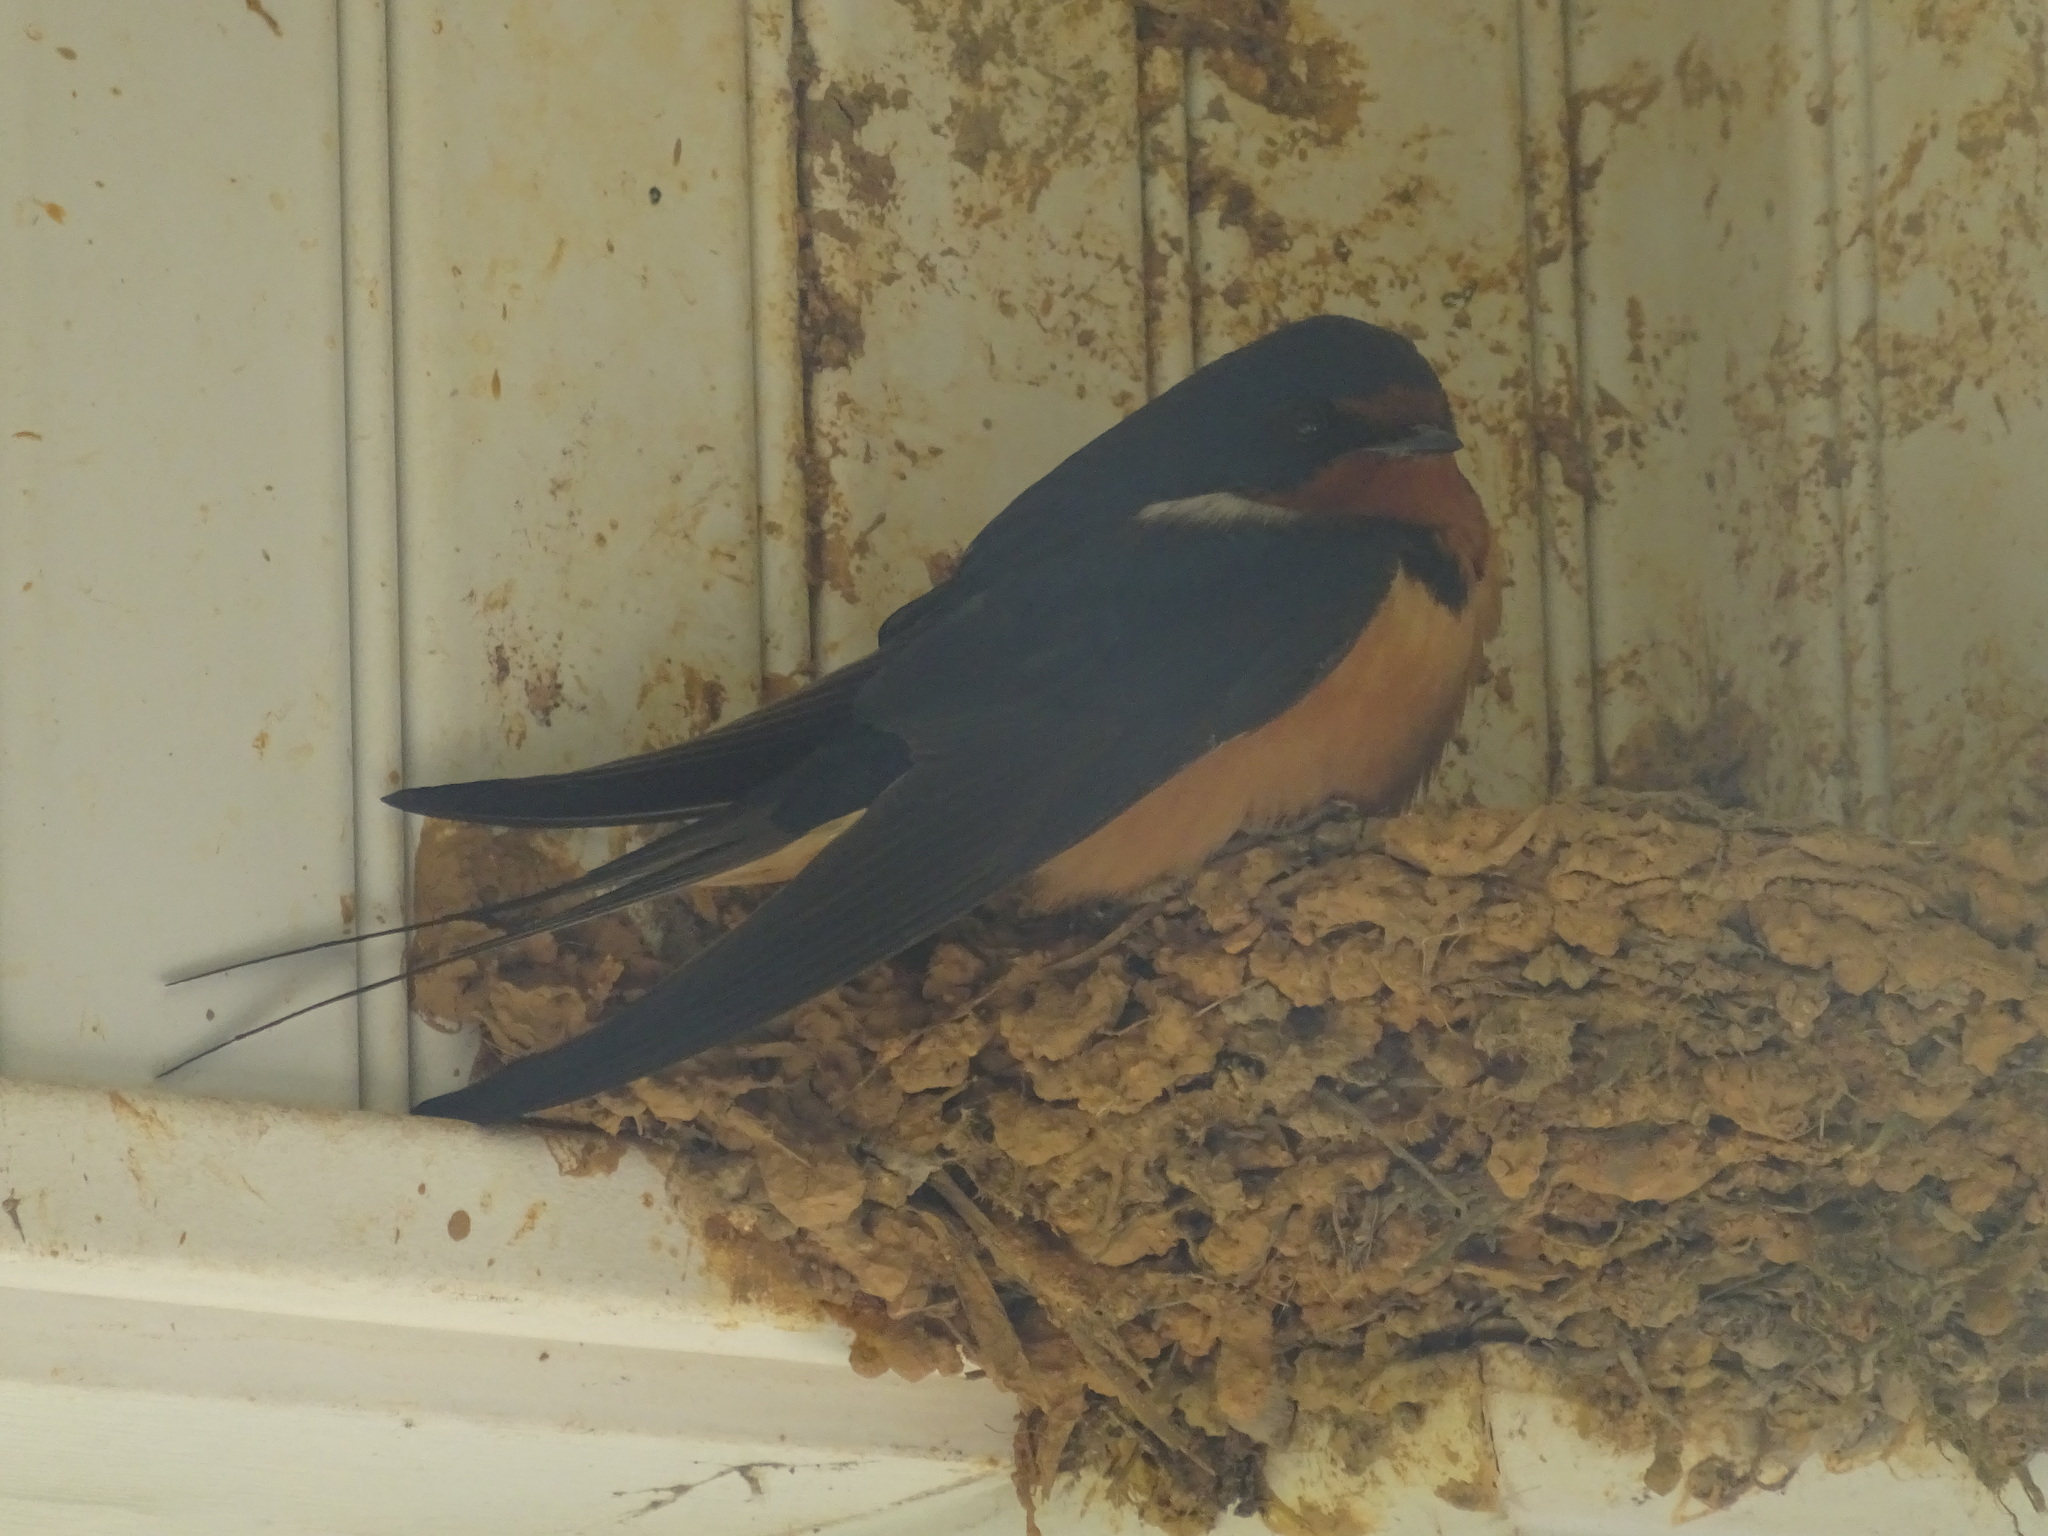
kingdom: Animalia
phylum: Chordata
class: Aves
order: Passeriformes
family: Hirundinidae
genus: Hirundo
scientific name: Hirundo rustica
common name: Barn swallow
